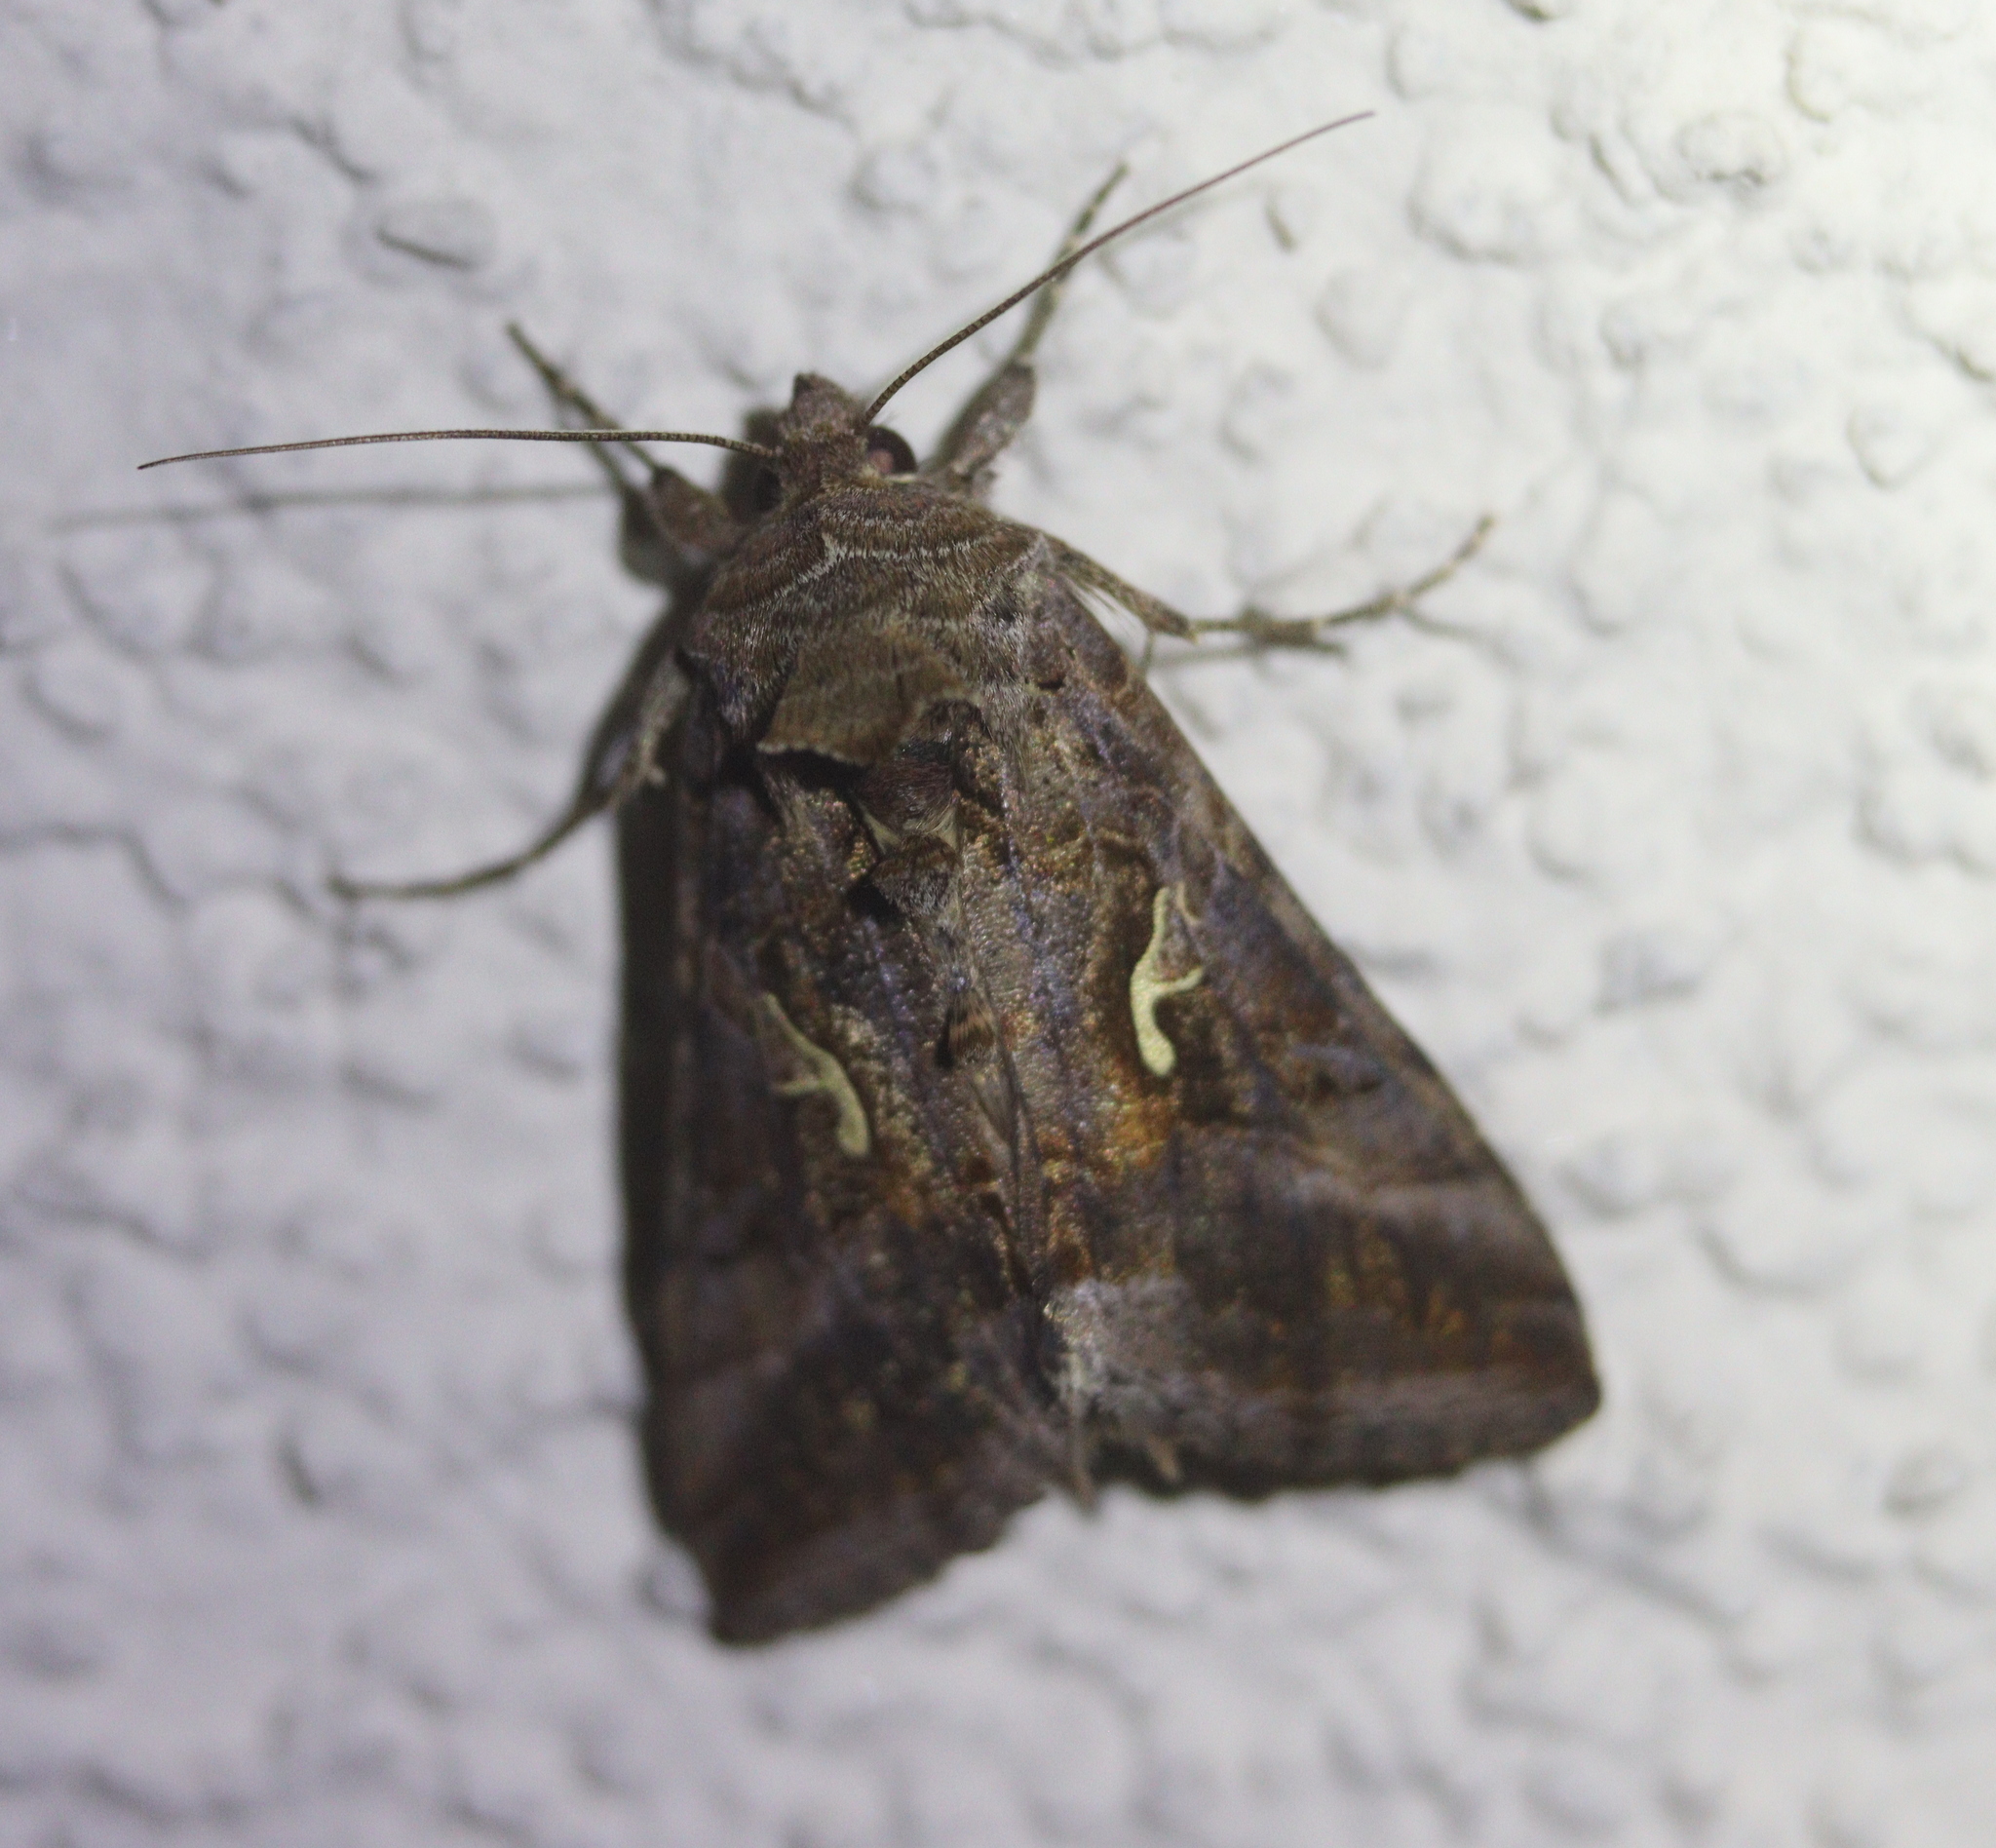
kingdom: Animalia
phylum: Arthropoda
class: Insecta
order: Lepidoptera
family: Noctuidae
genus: Autographa
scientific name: Autographa gamma
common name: Silver y
